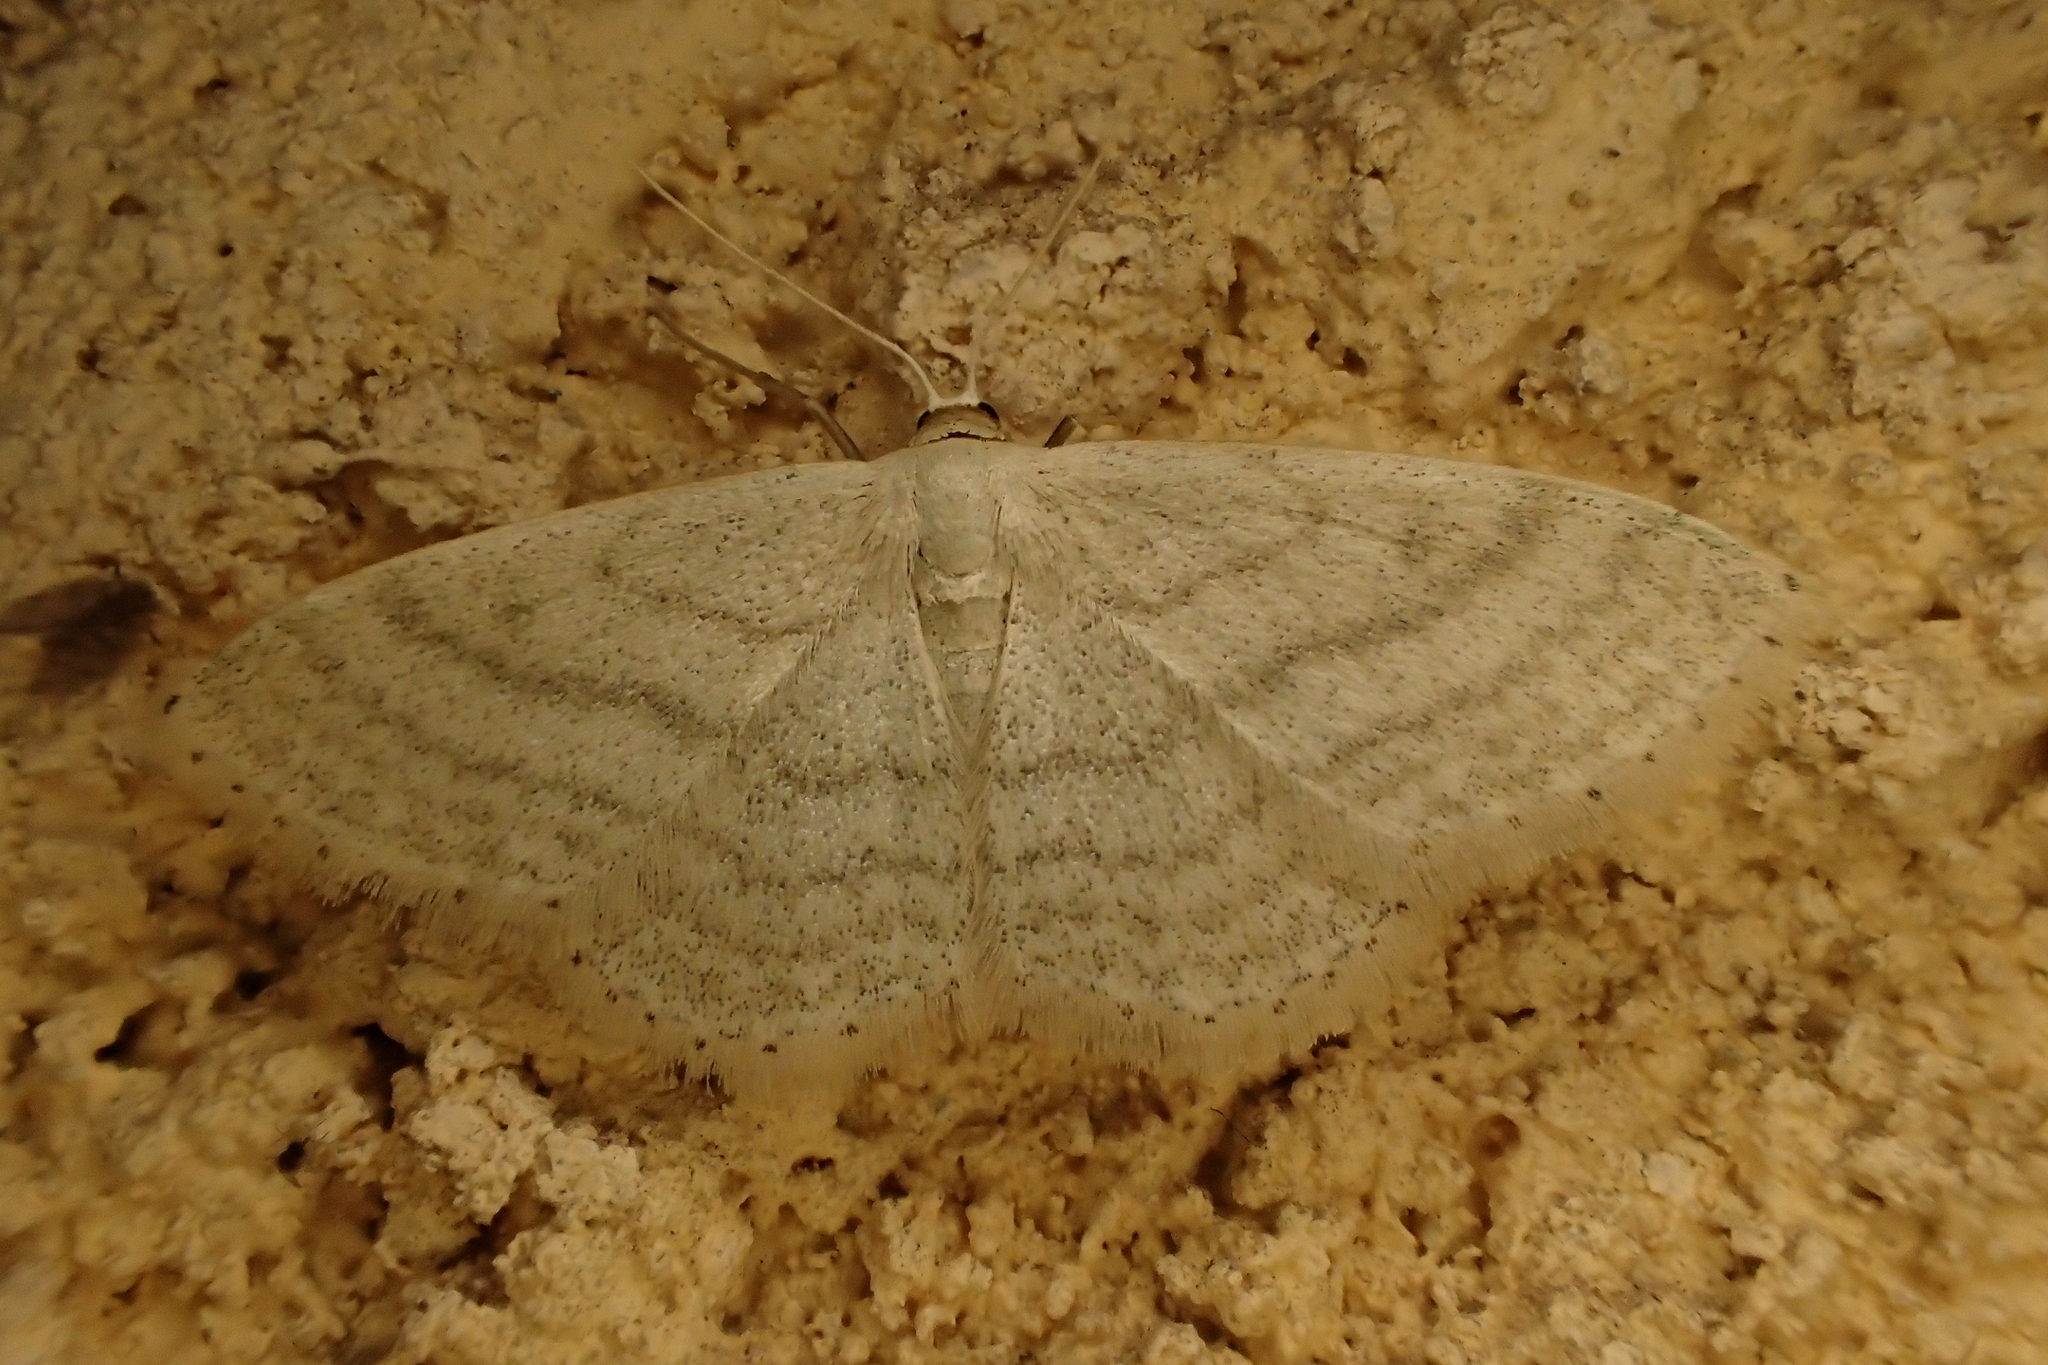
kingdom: Animalia
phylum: Arthropoda
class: Insecta
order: Lepidoptera
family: Geometridae
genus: Idaea
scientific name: Idaea subsericeata
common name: Satin wave
